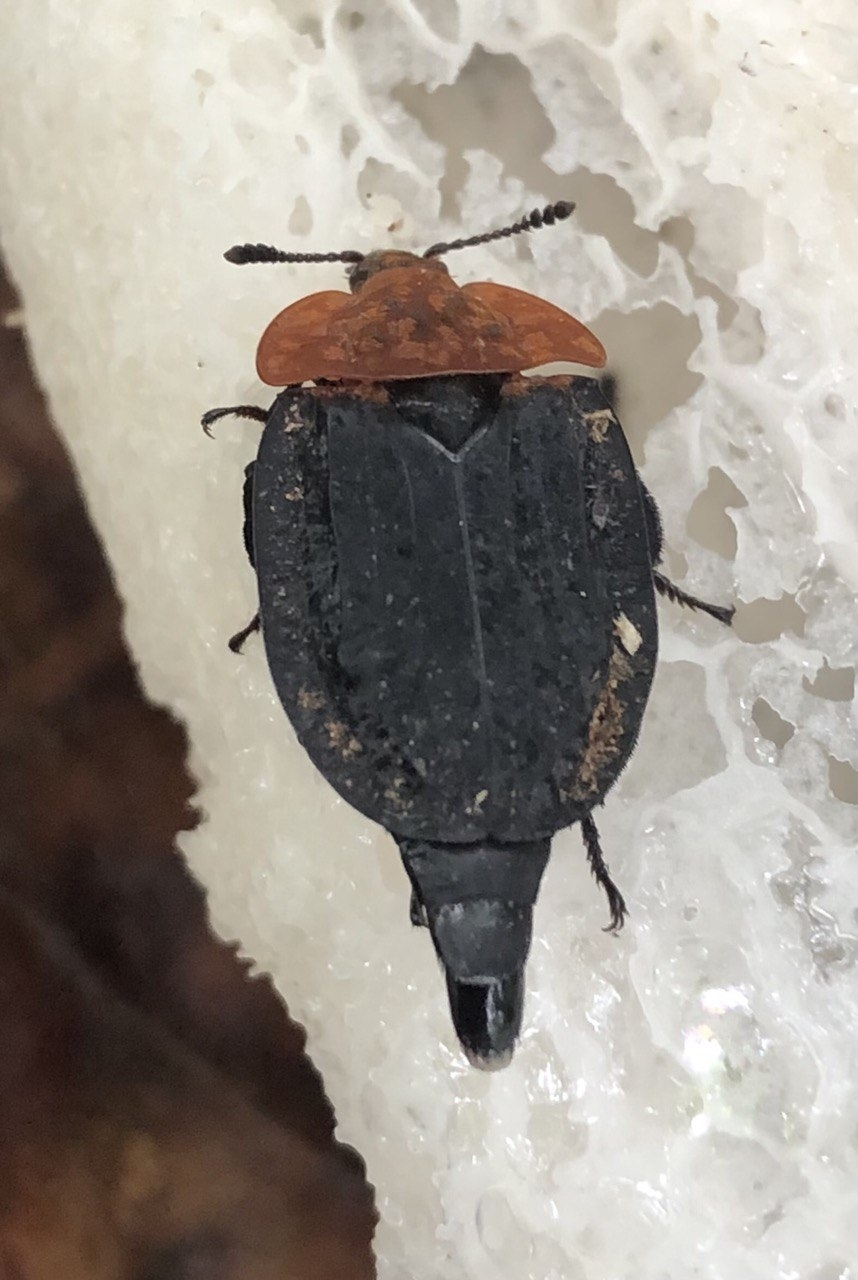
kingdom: Animalia
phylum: Arthropoda
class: Insecta
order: Coleoptera
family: Staphylinidae
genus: Oiceoptoma
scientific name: Oiceoptoma thoracicum
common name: Red-breasted carrion beetle
